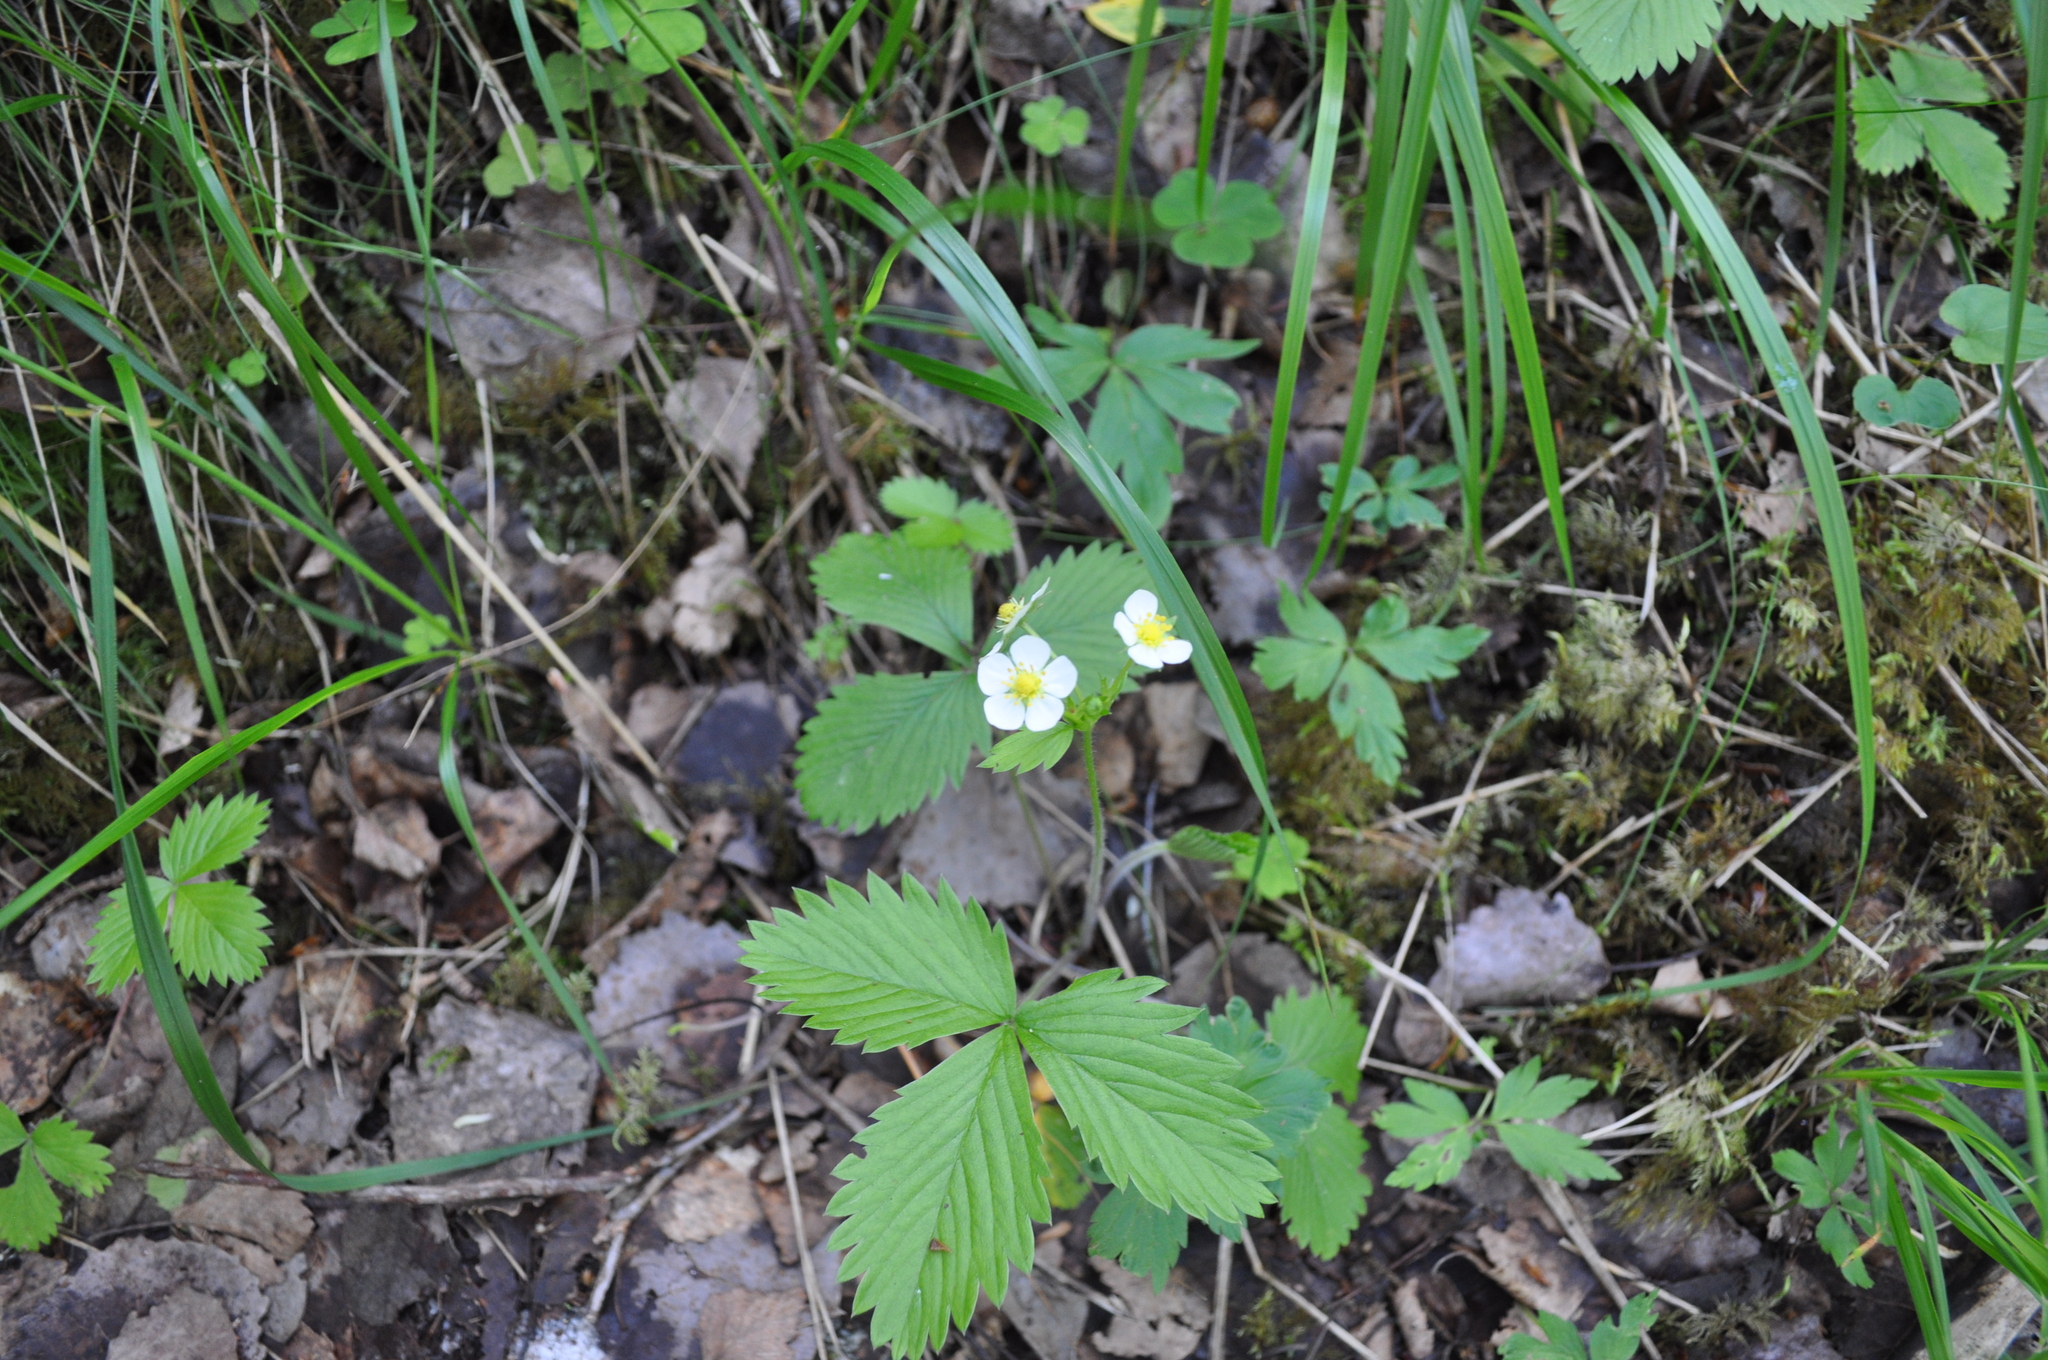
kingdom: Plantae
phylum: Tracheophyta
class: Magnoliopsida
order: Rosales
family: Rosaceae
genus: Fragaria
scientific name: Fragaria vesca
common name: Wild strawberry
